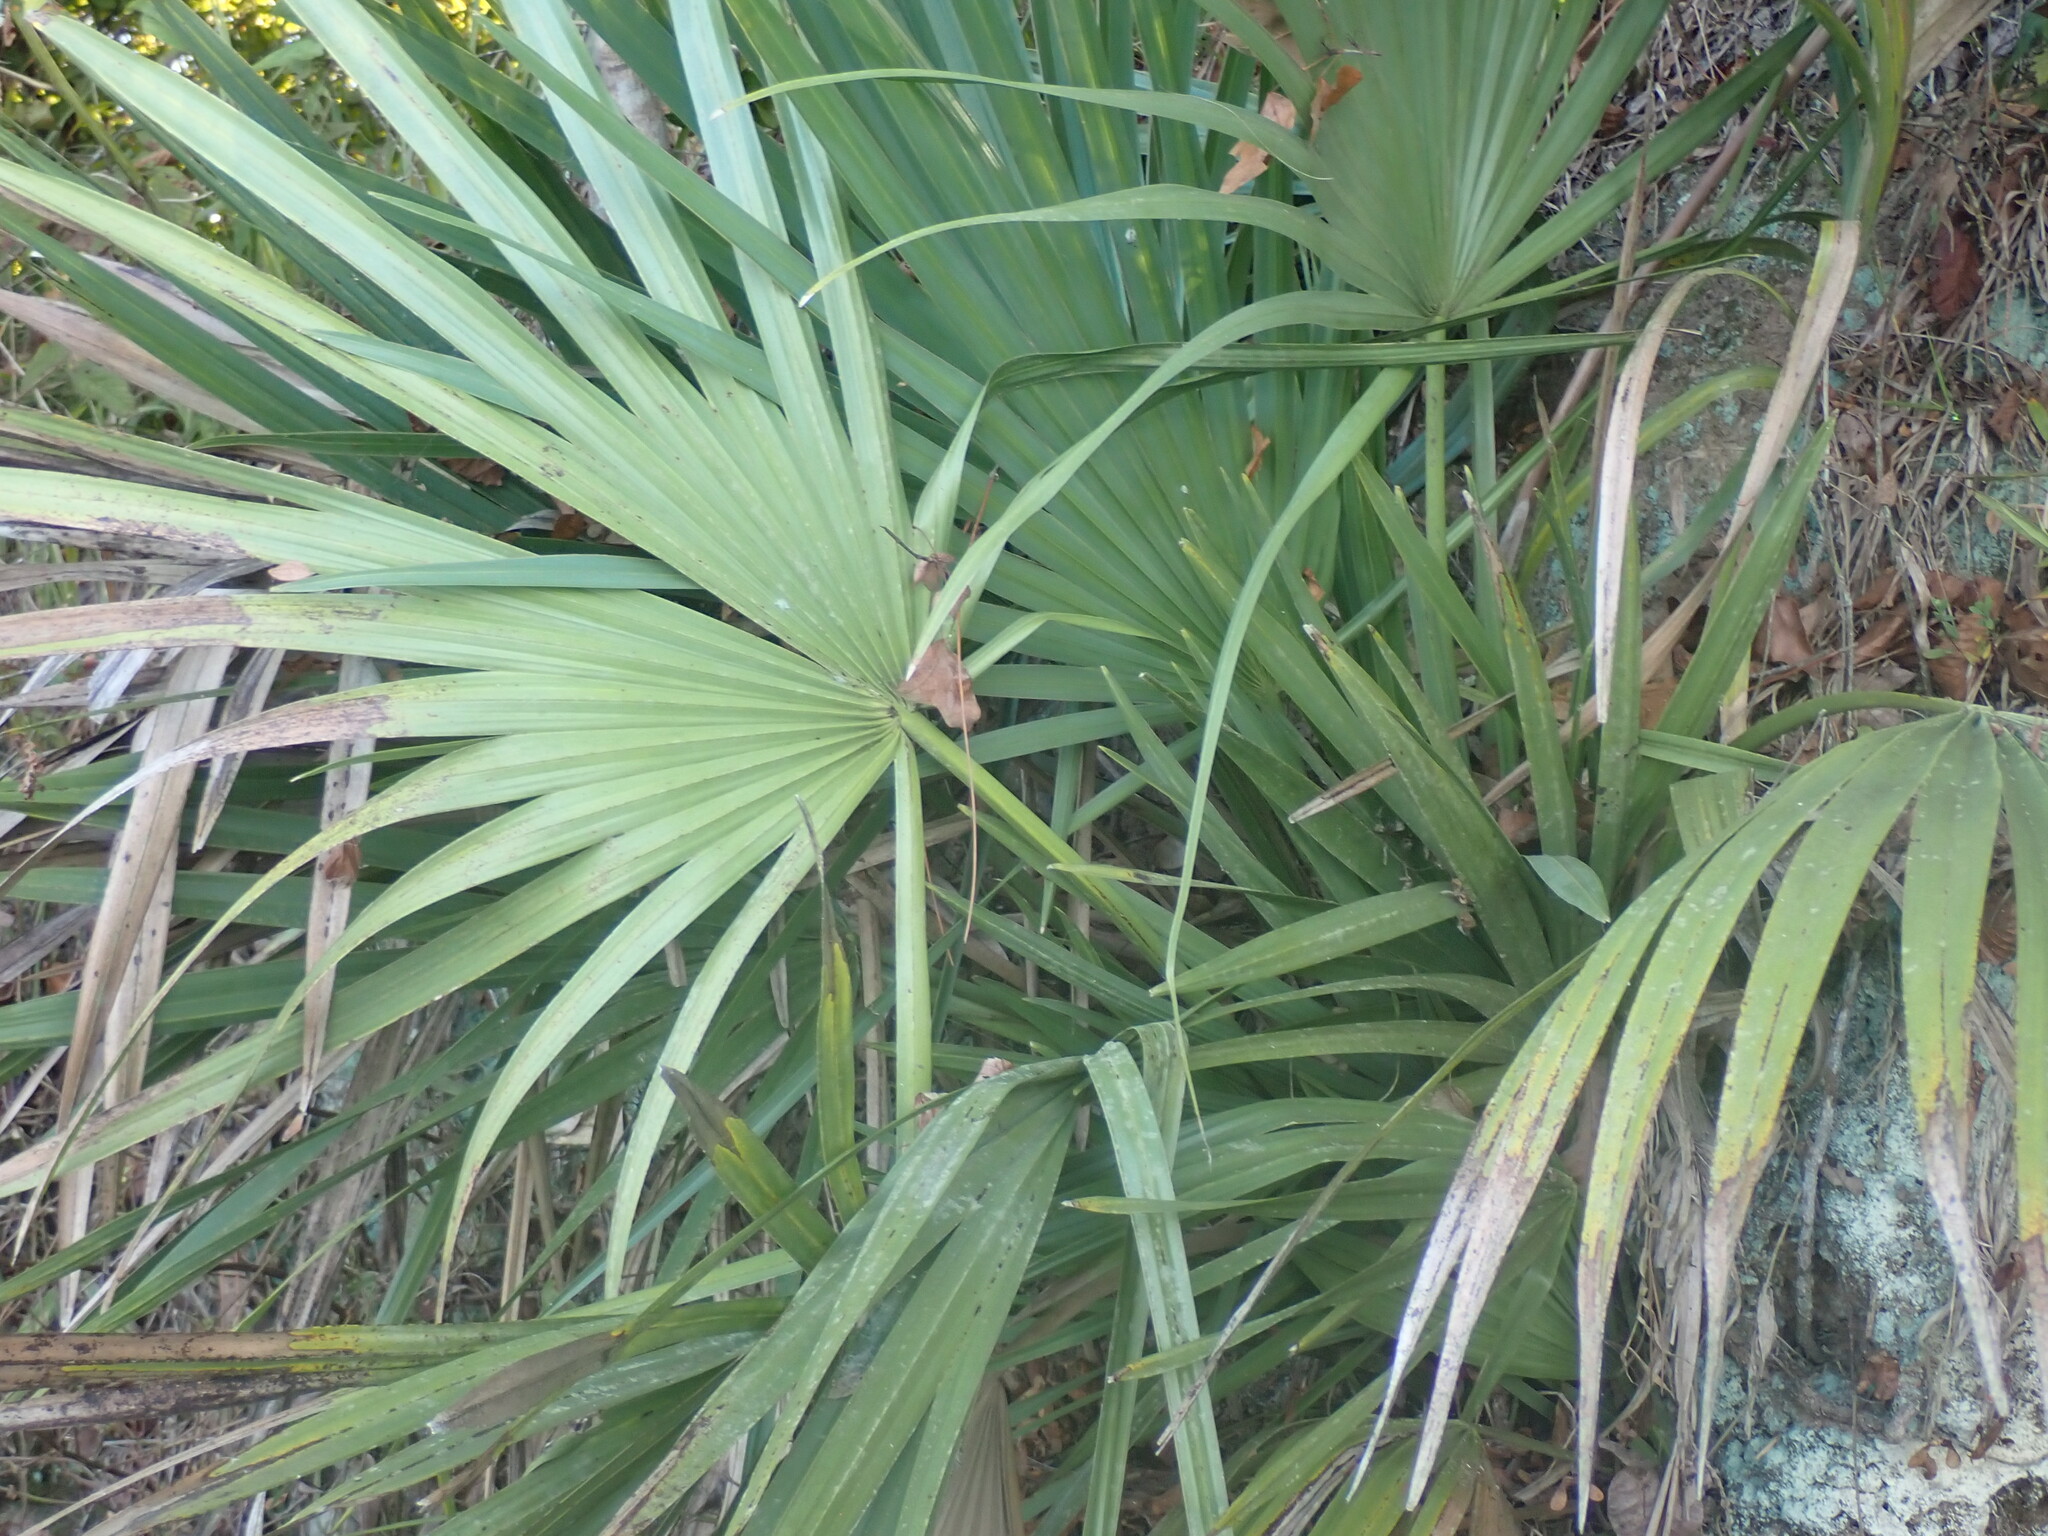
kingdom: Plantae
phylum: Tracheophyta
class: Liliopsida
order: Arecales
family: Arecaceae
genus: Sabal
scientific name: Sabal minor
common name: Dwarf palmetto
